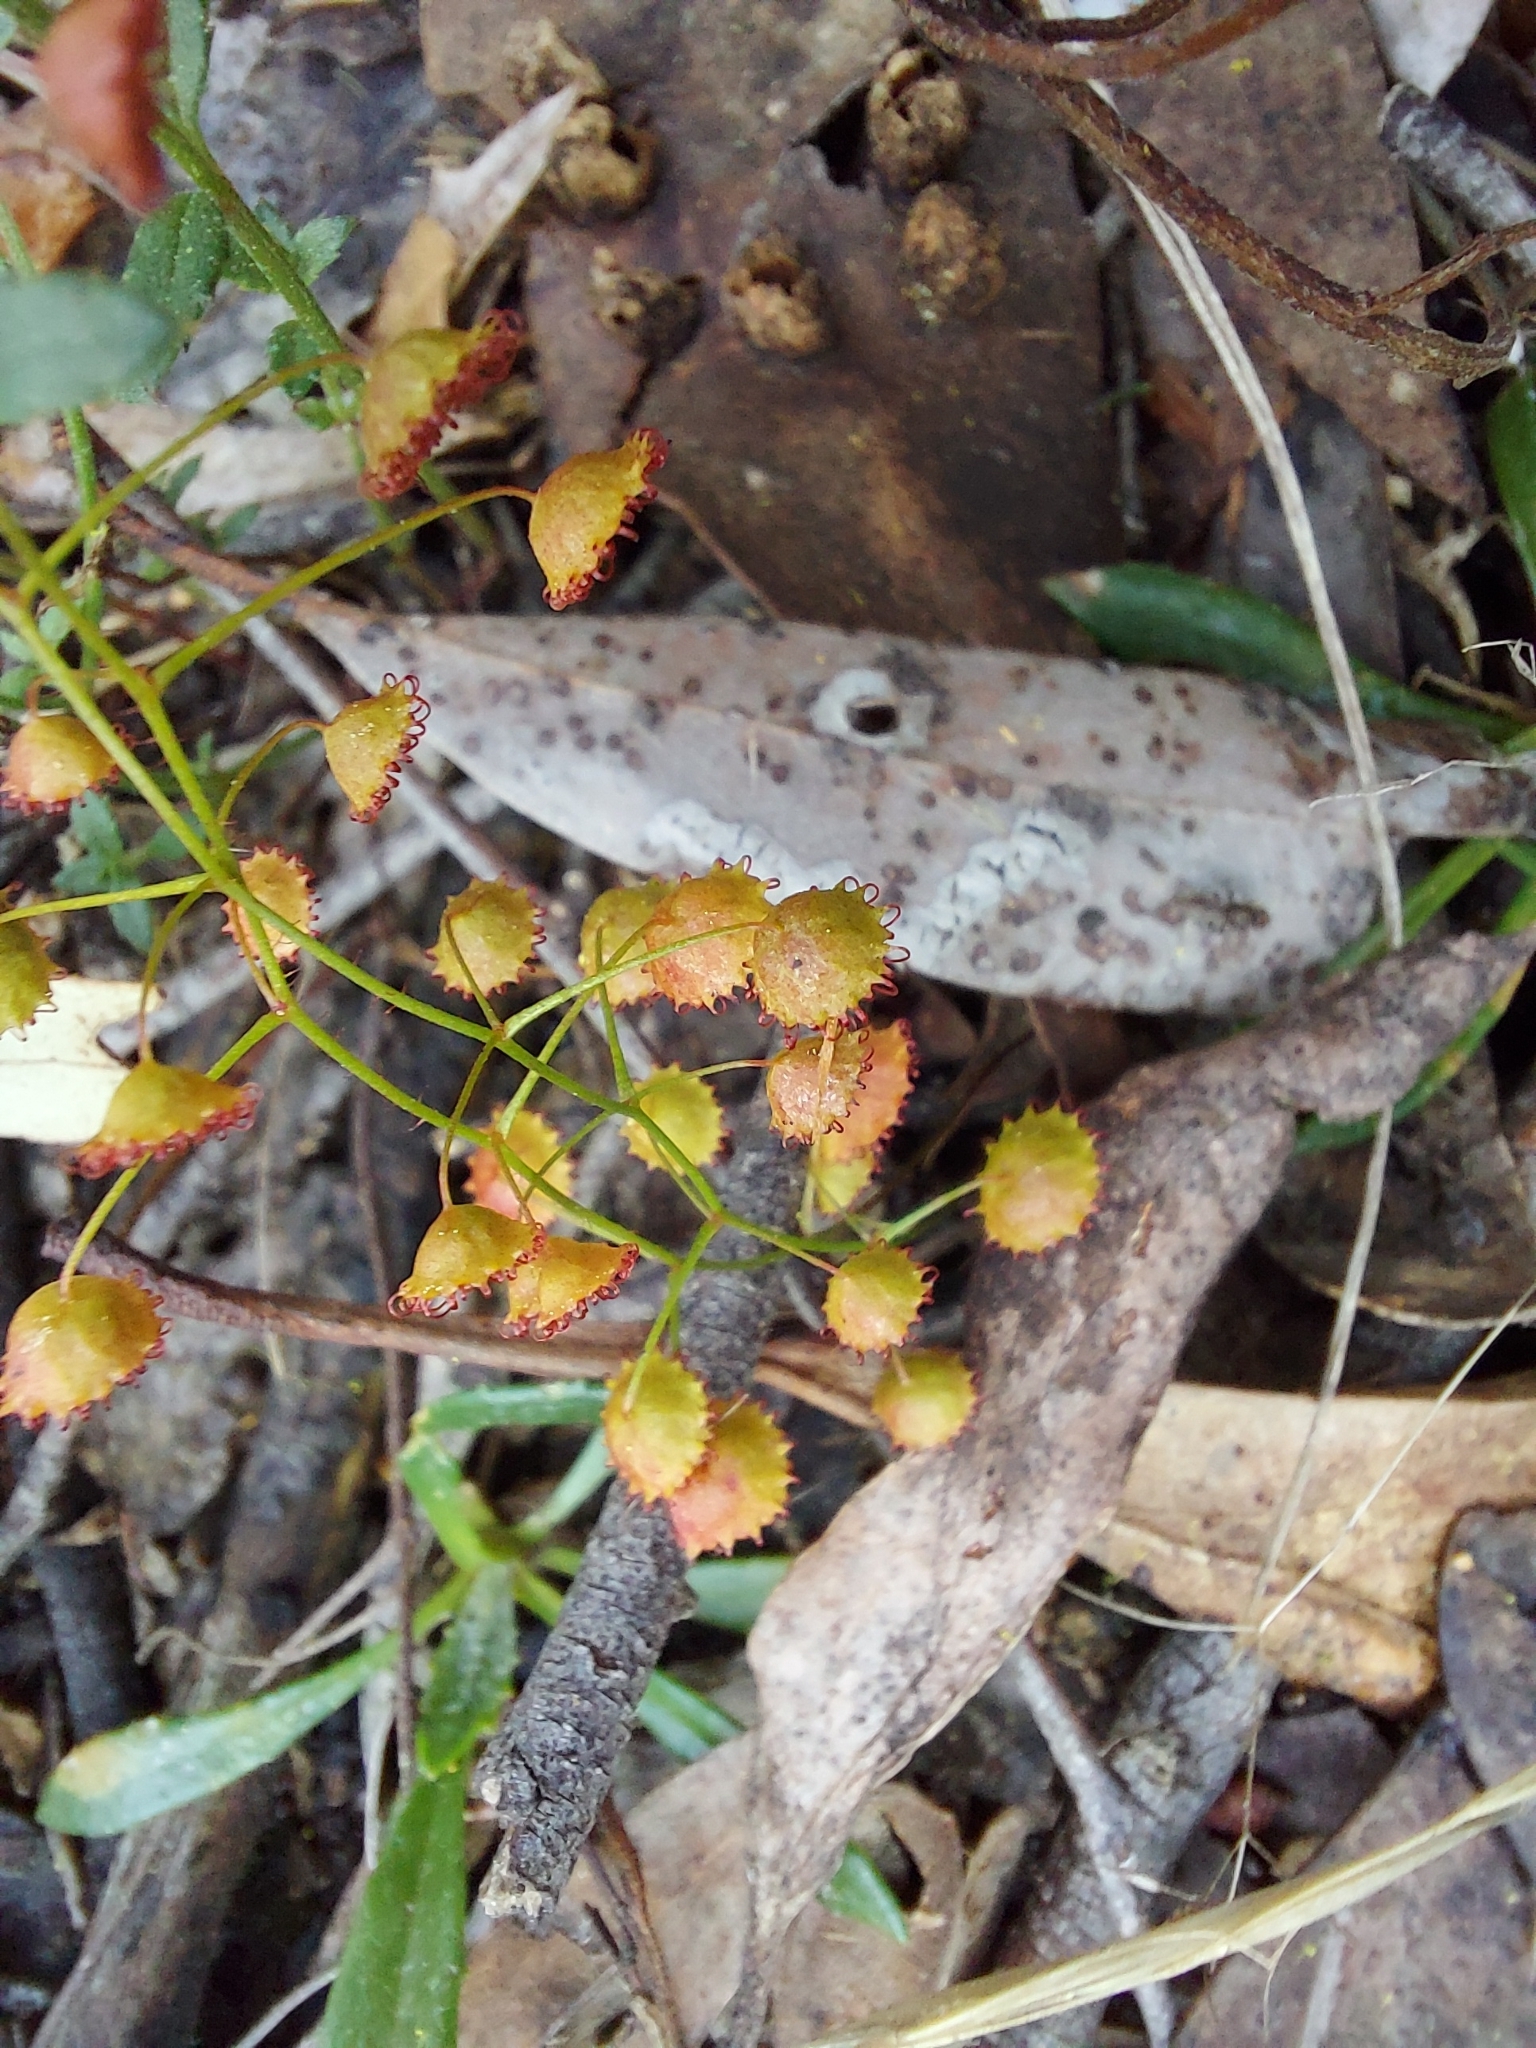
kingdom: Plantae
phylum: Tracheophyta
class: Magnoliopsida
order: Caryophyllales
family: Droseraceae
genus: Drosera
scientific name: Drosera planchonii
